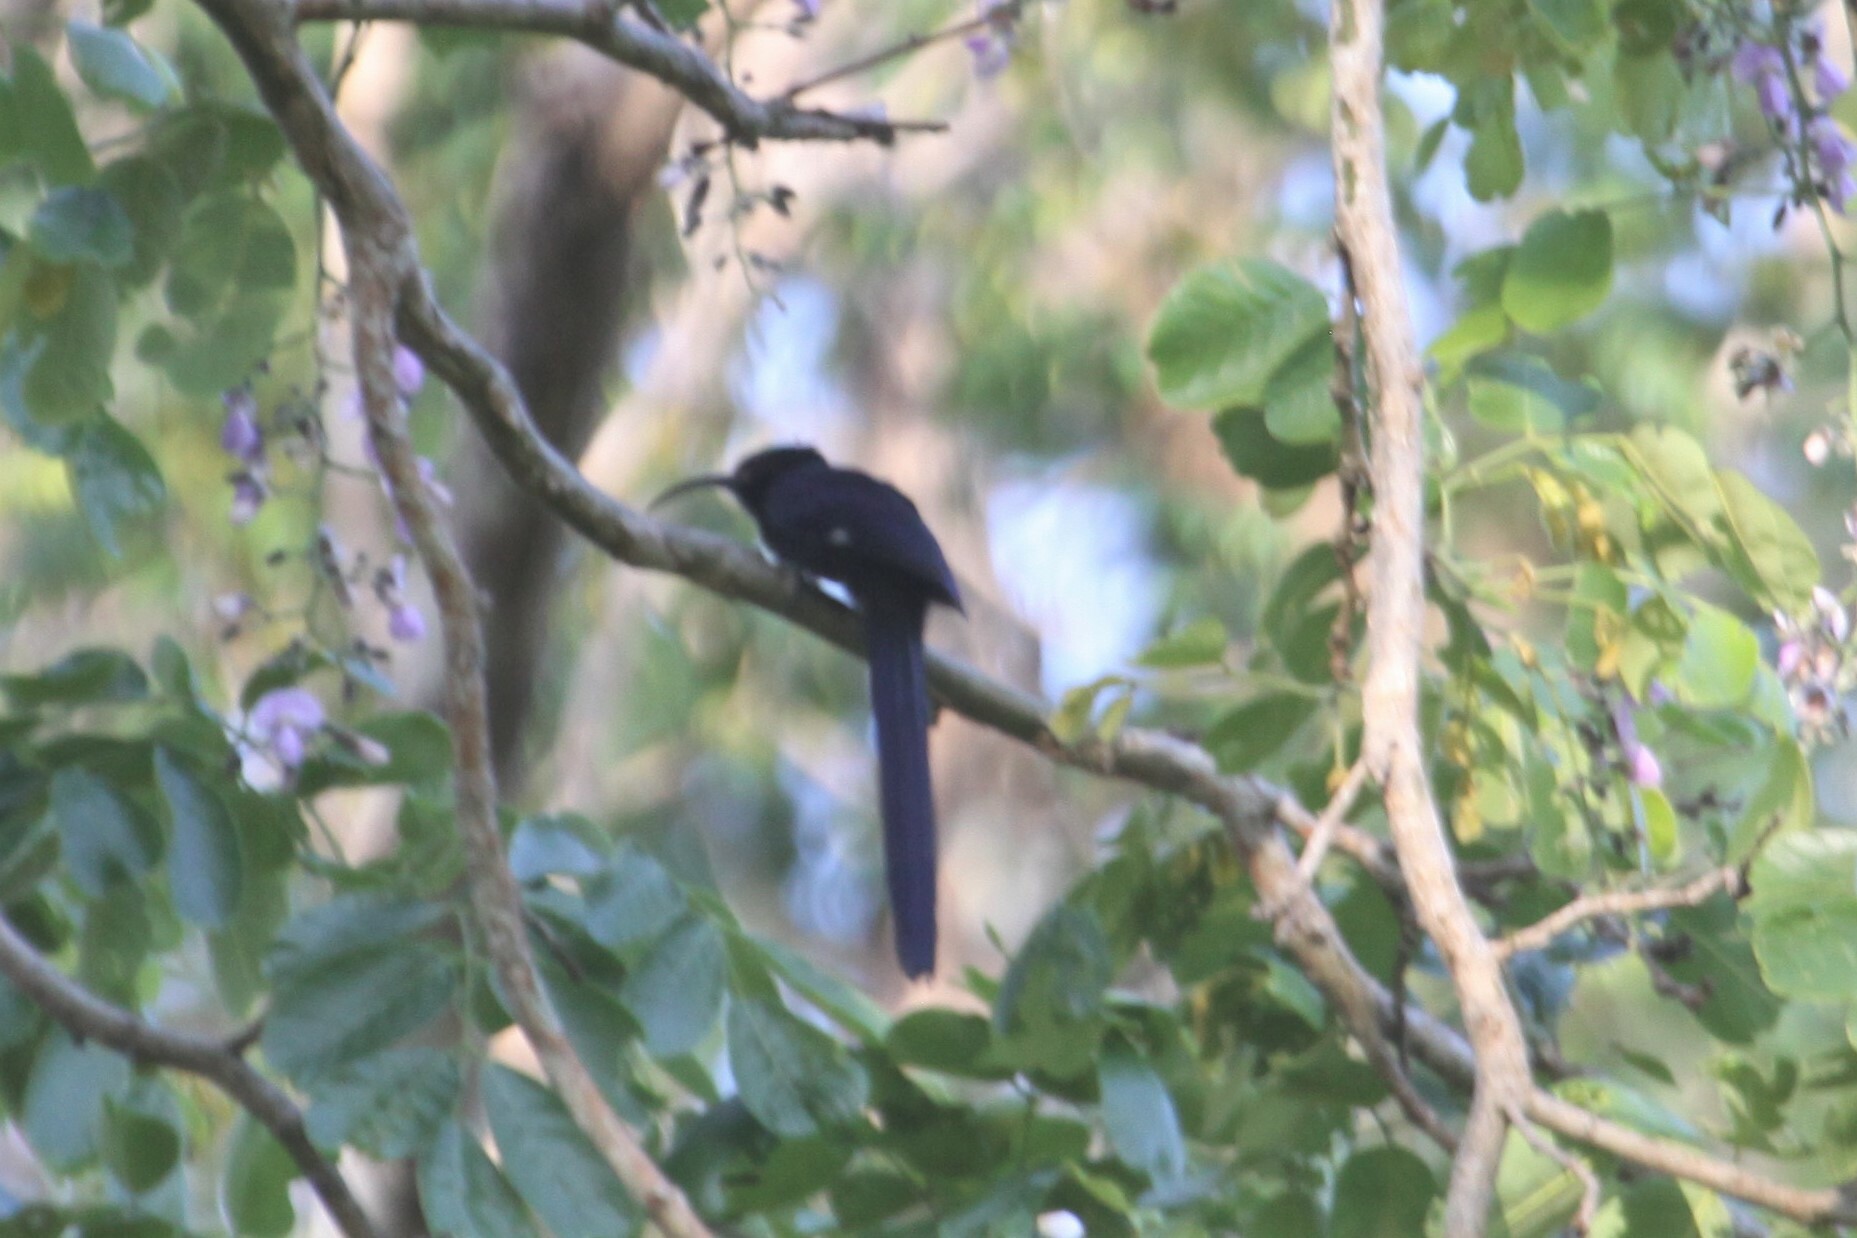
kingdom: Animalia
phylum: Chordata
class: Aves
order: Bucerotiformes
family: Phoeniculidae
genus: Rhinopomastus
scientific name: Rhinopomastus cyanomelas
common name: Common scimitarbill
